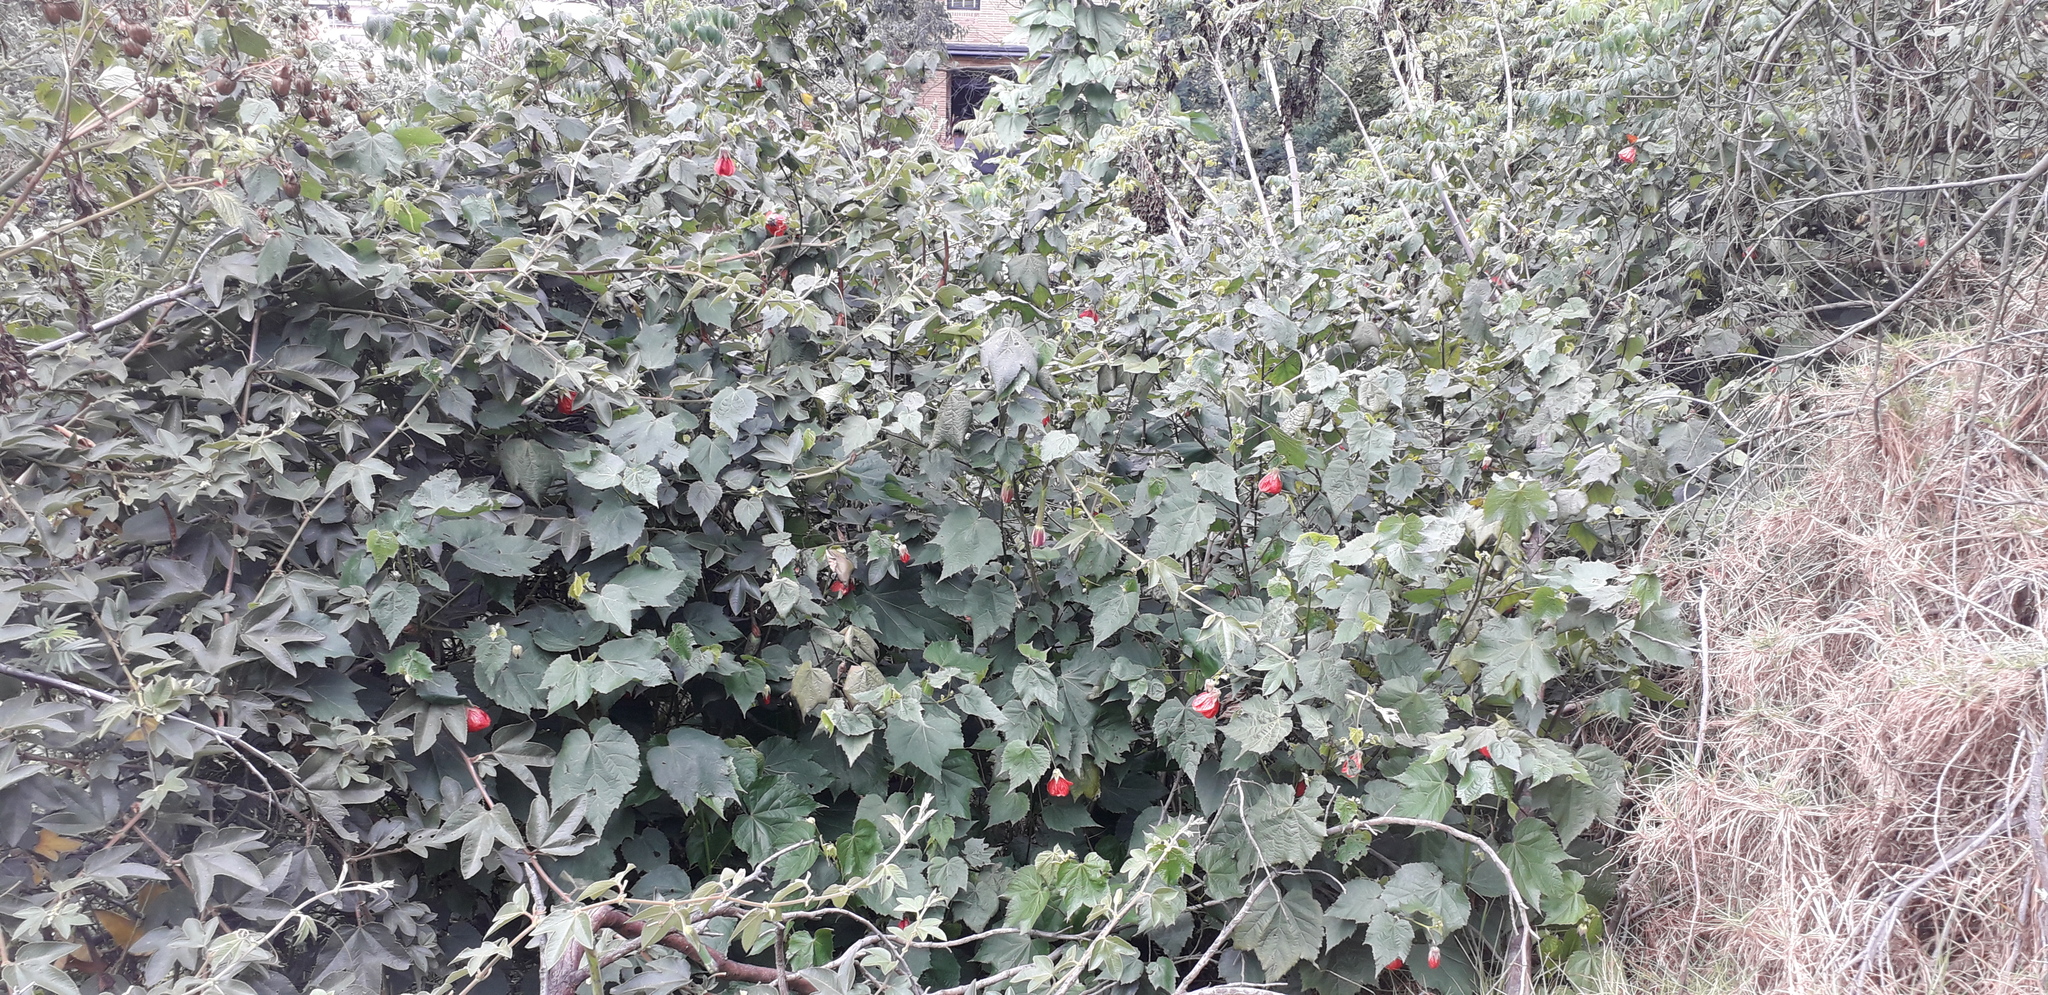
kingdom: Plantae
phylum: Tracheophyta
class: Magnoliopsida
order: Malvales
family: Malvaceae
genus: Callianthe
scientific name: Callianthe picta
